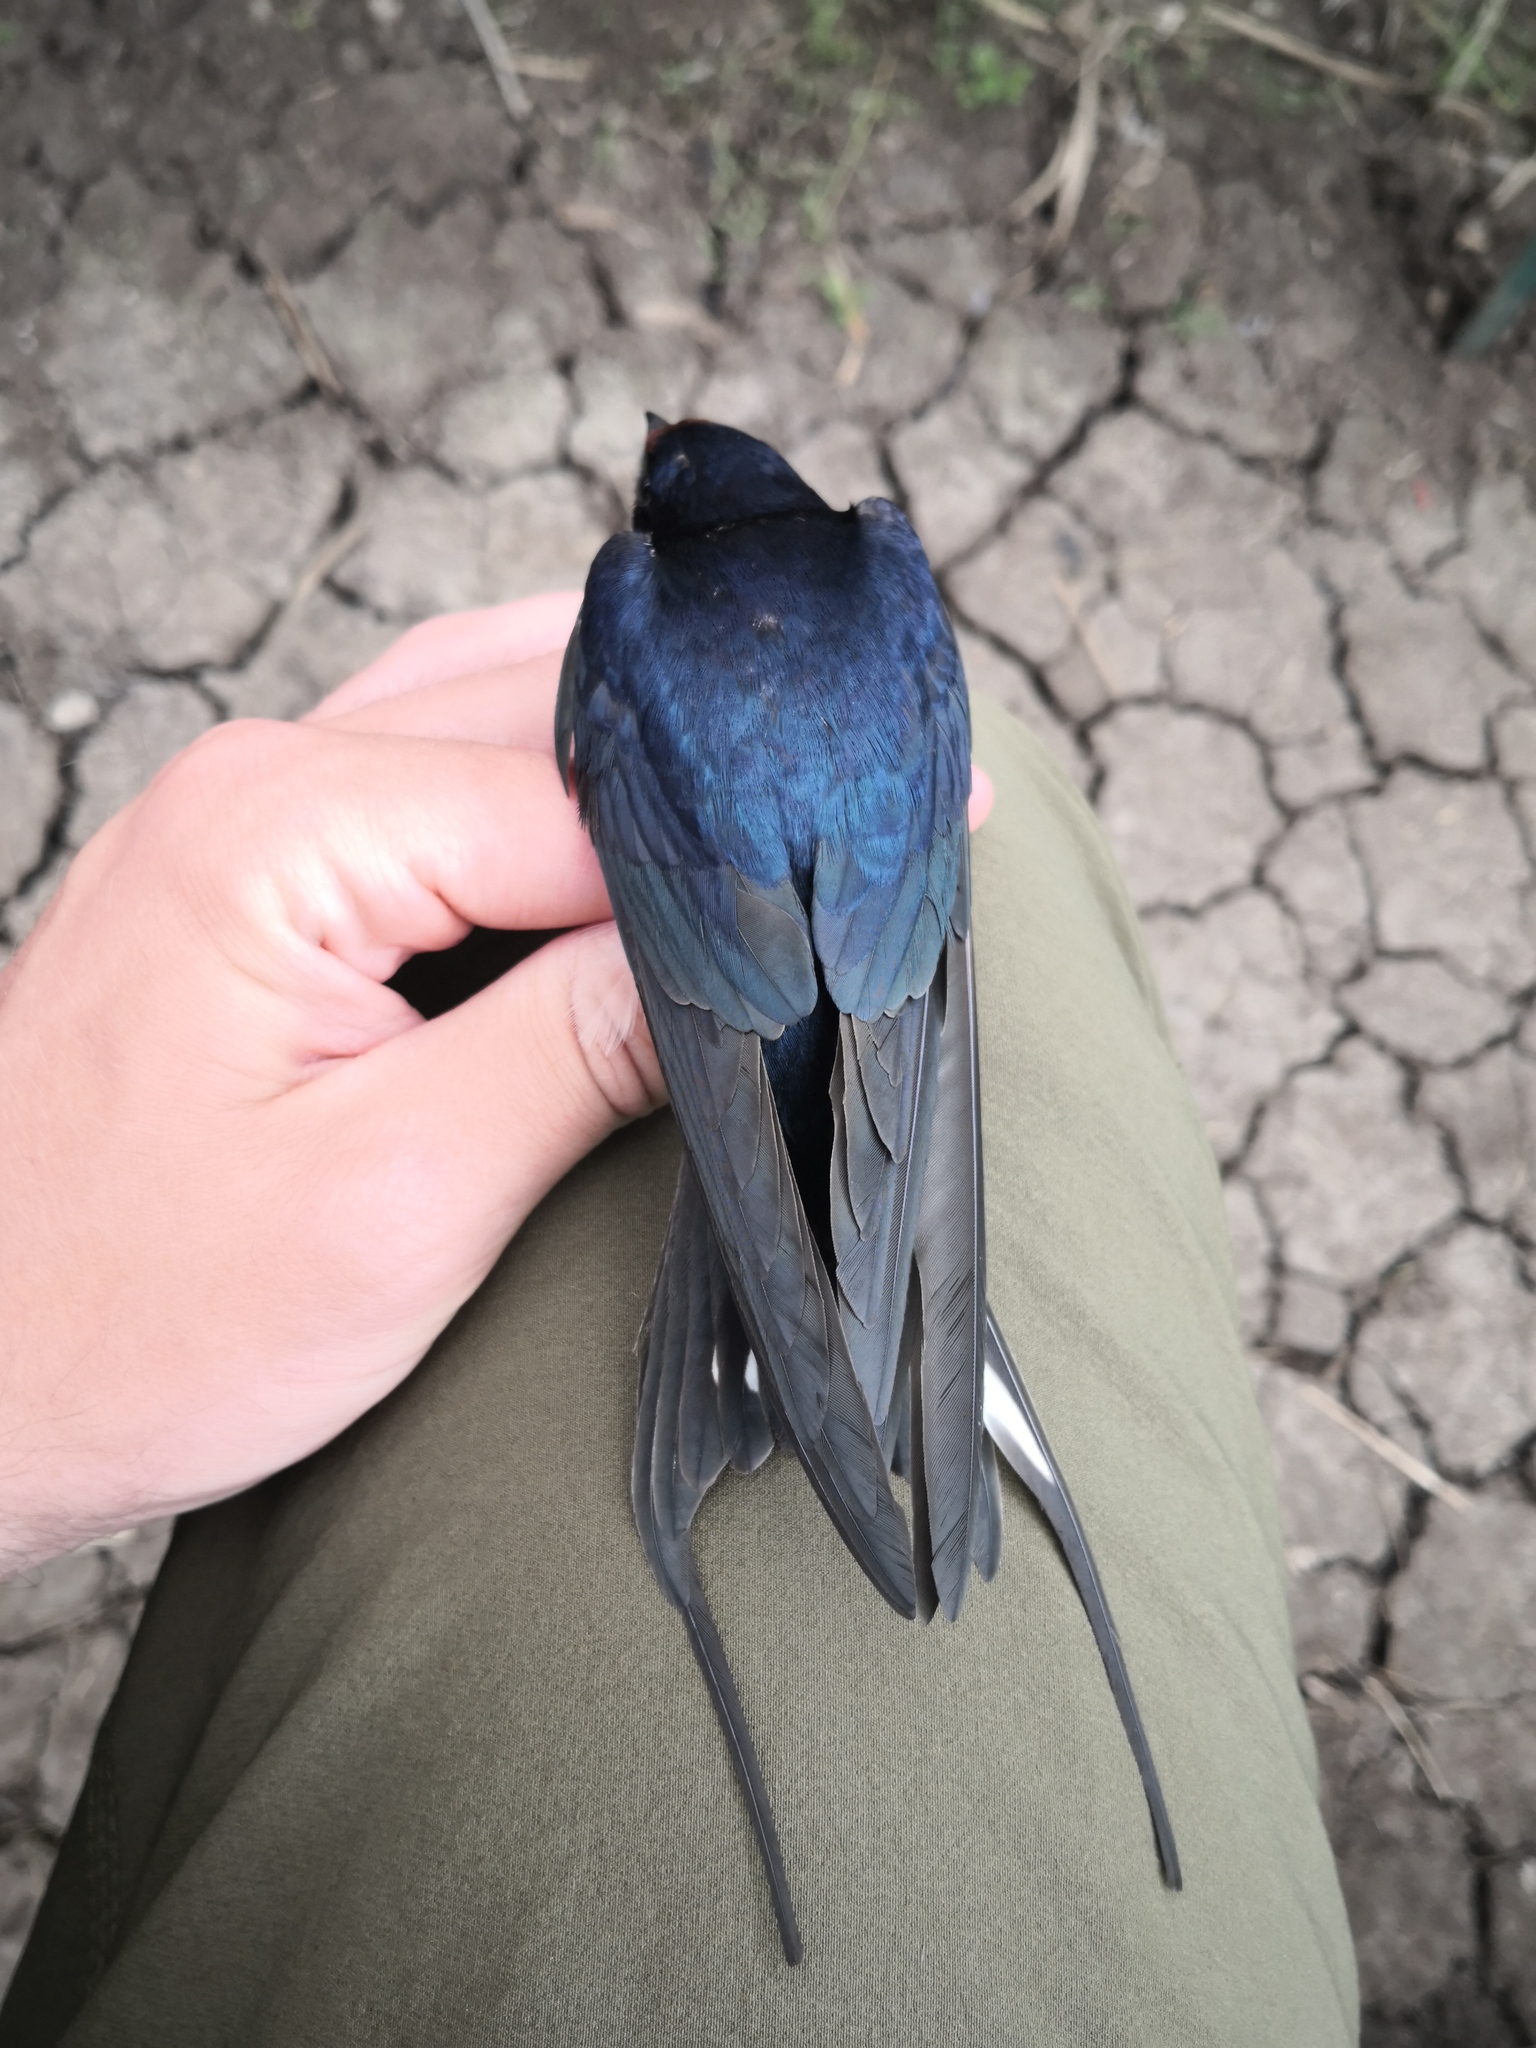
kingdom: Animalia
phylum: Chordata
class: Aves
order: Passeriformes
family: Hirundinidae
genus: Hirundo
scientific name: Hirundo rustica
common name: Barn swallow
